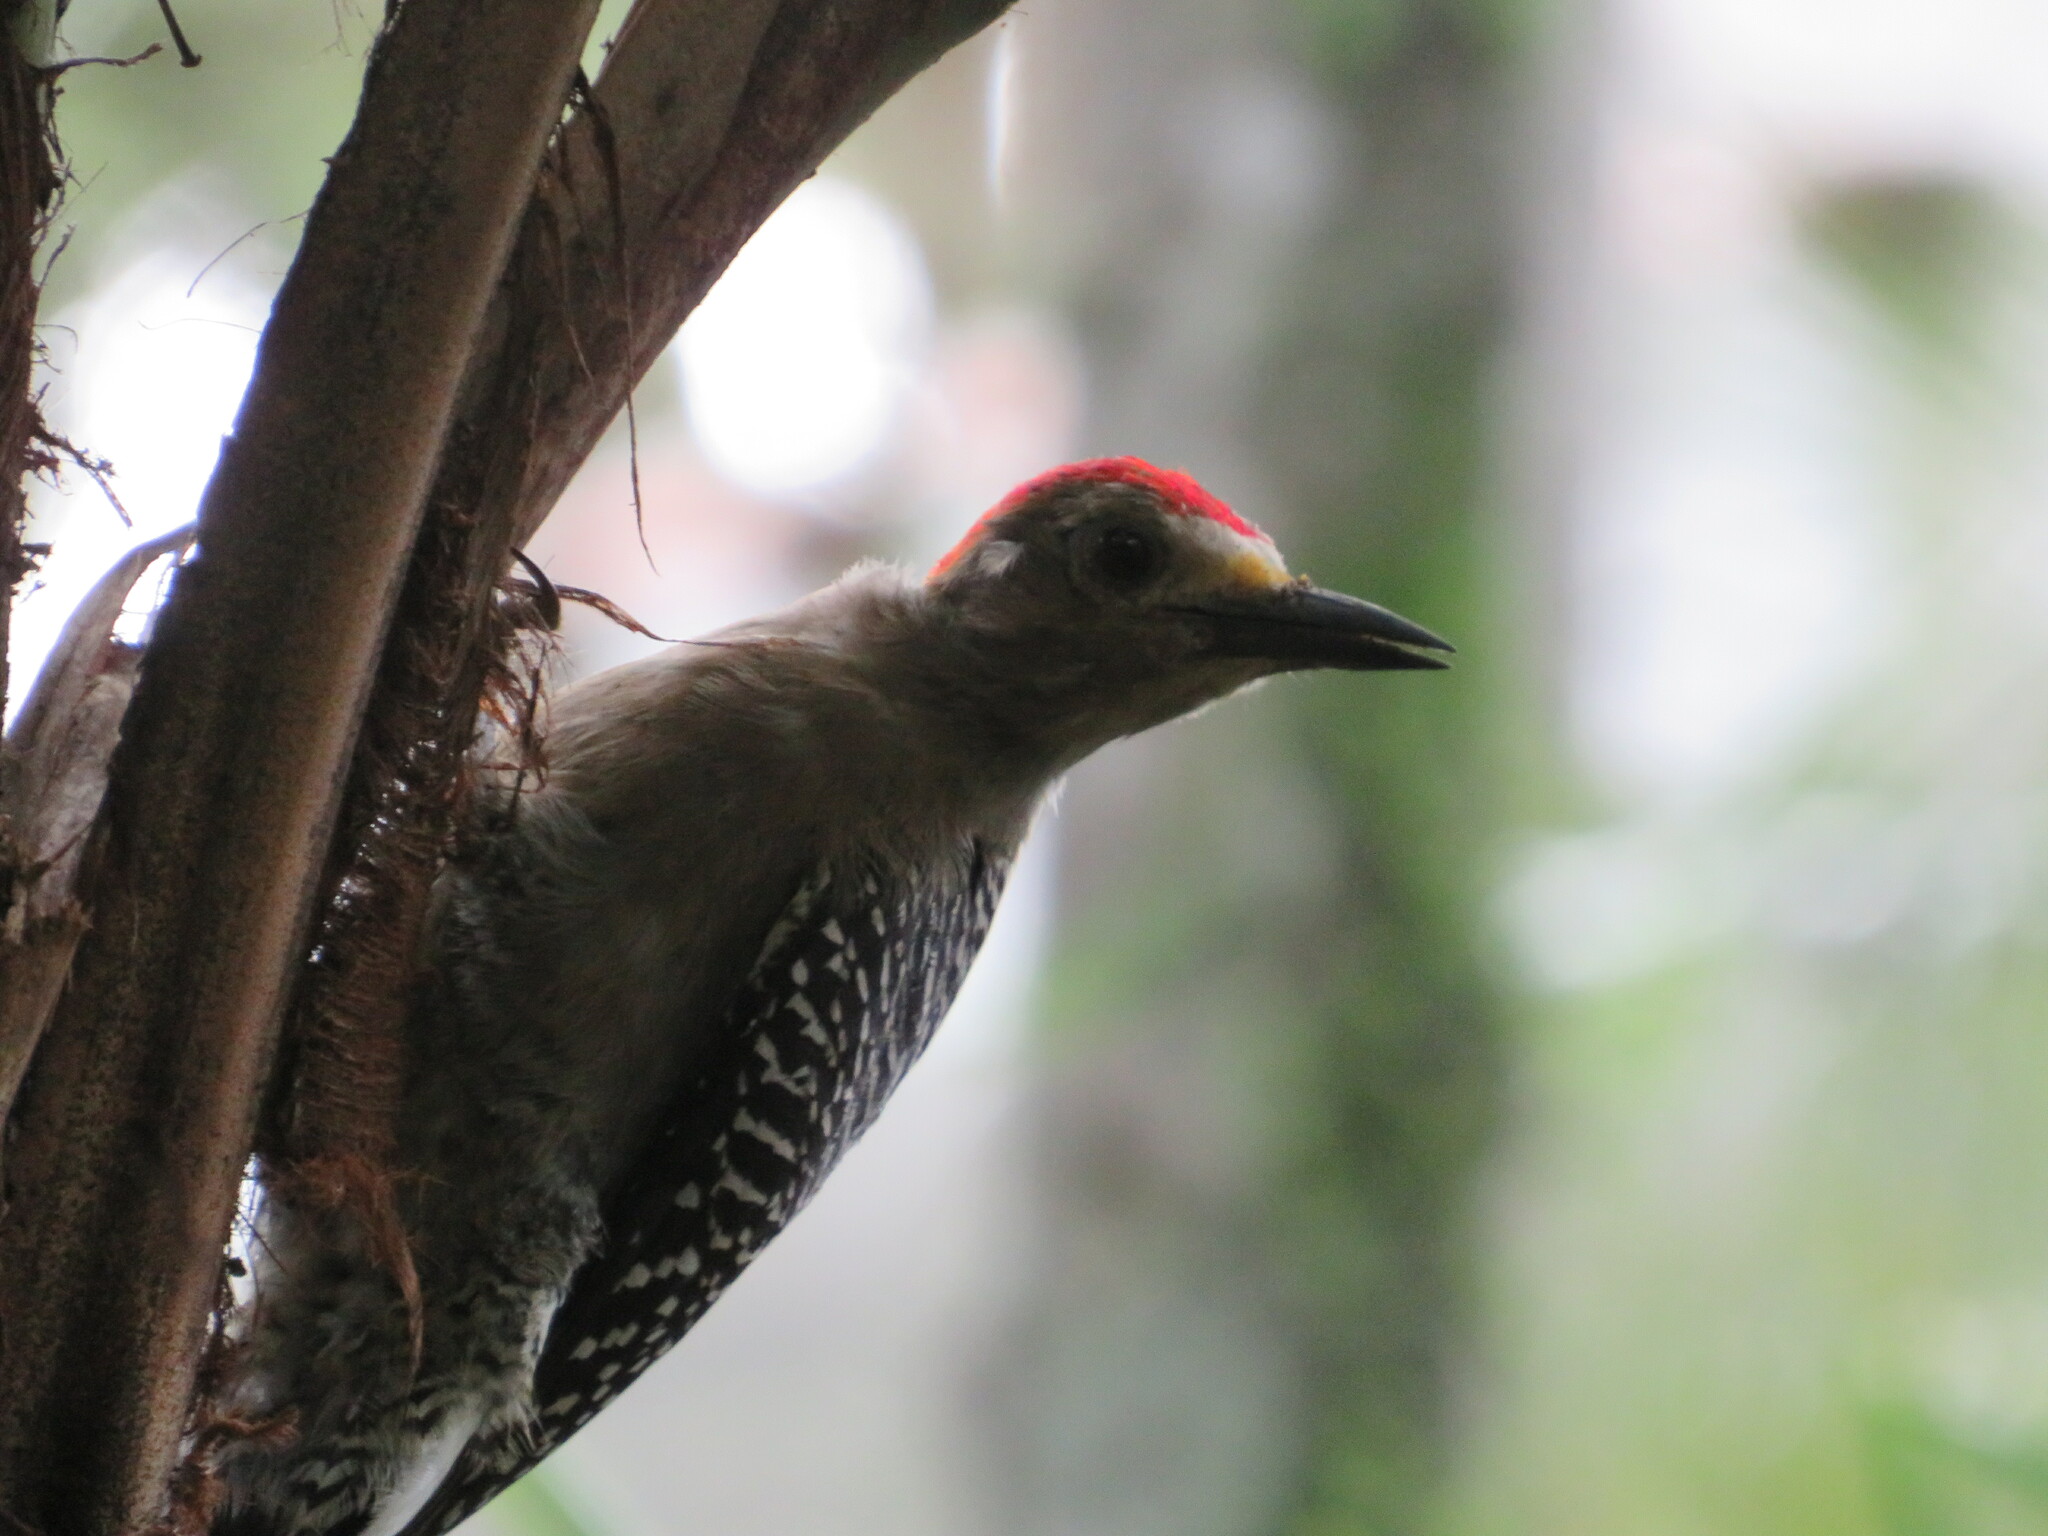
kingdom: Animalia
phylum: Chordata
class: Aves
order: Piciformes
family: Picidae
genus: Melanerpes
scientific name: Melanerpes santacruzi
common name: Velasquez's woodpecker
